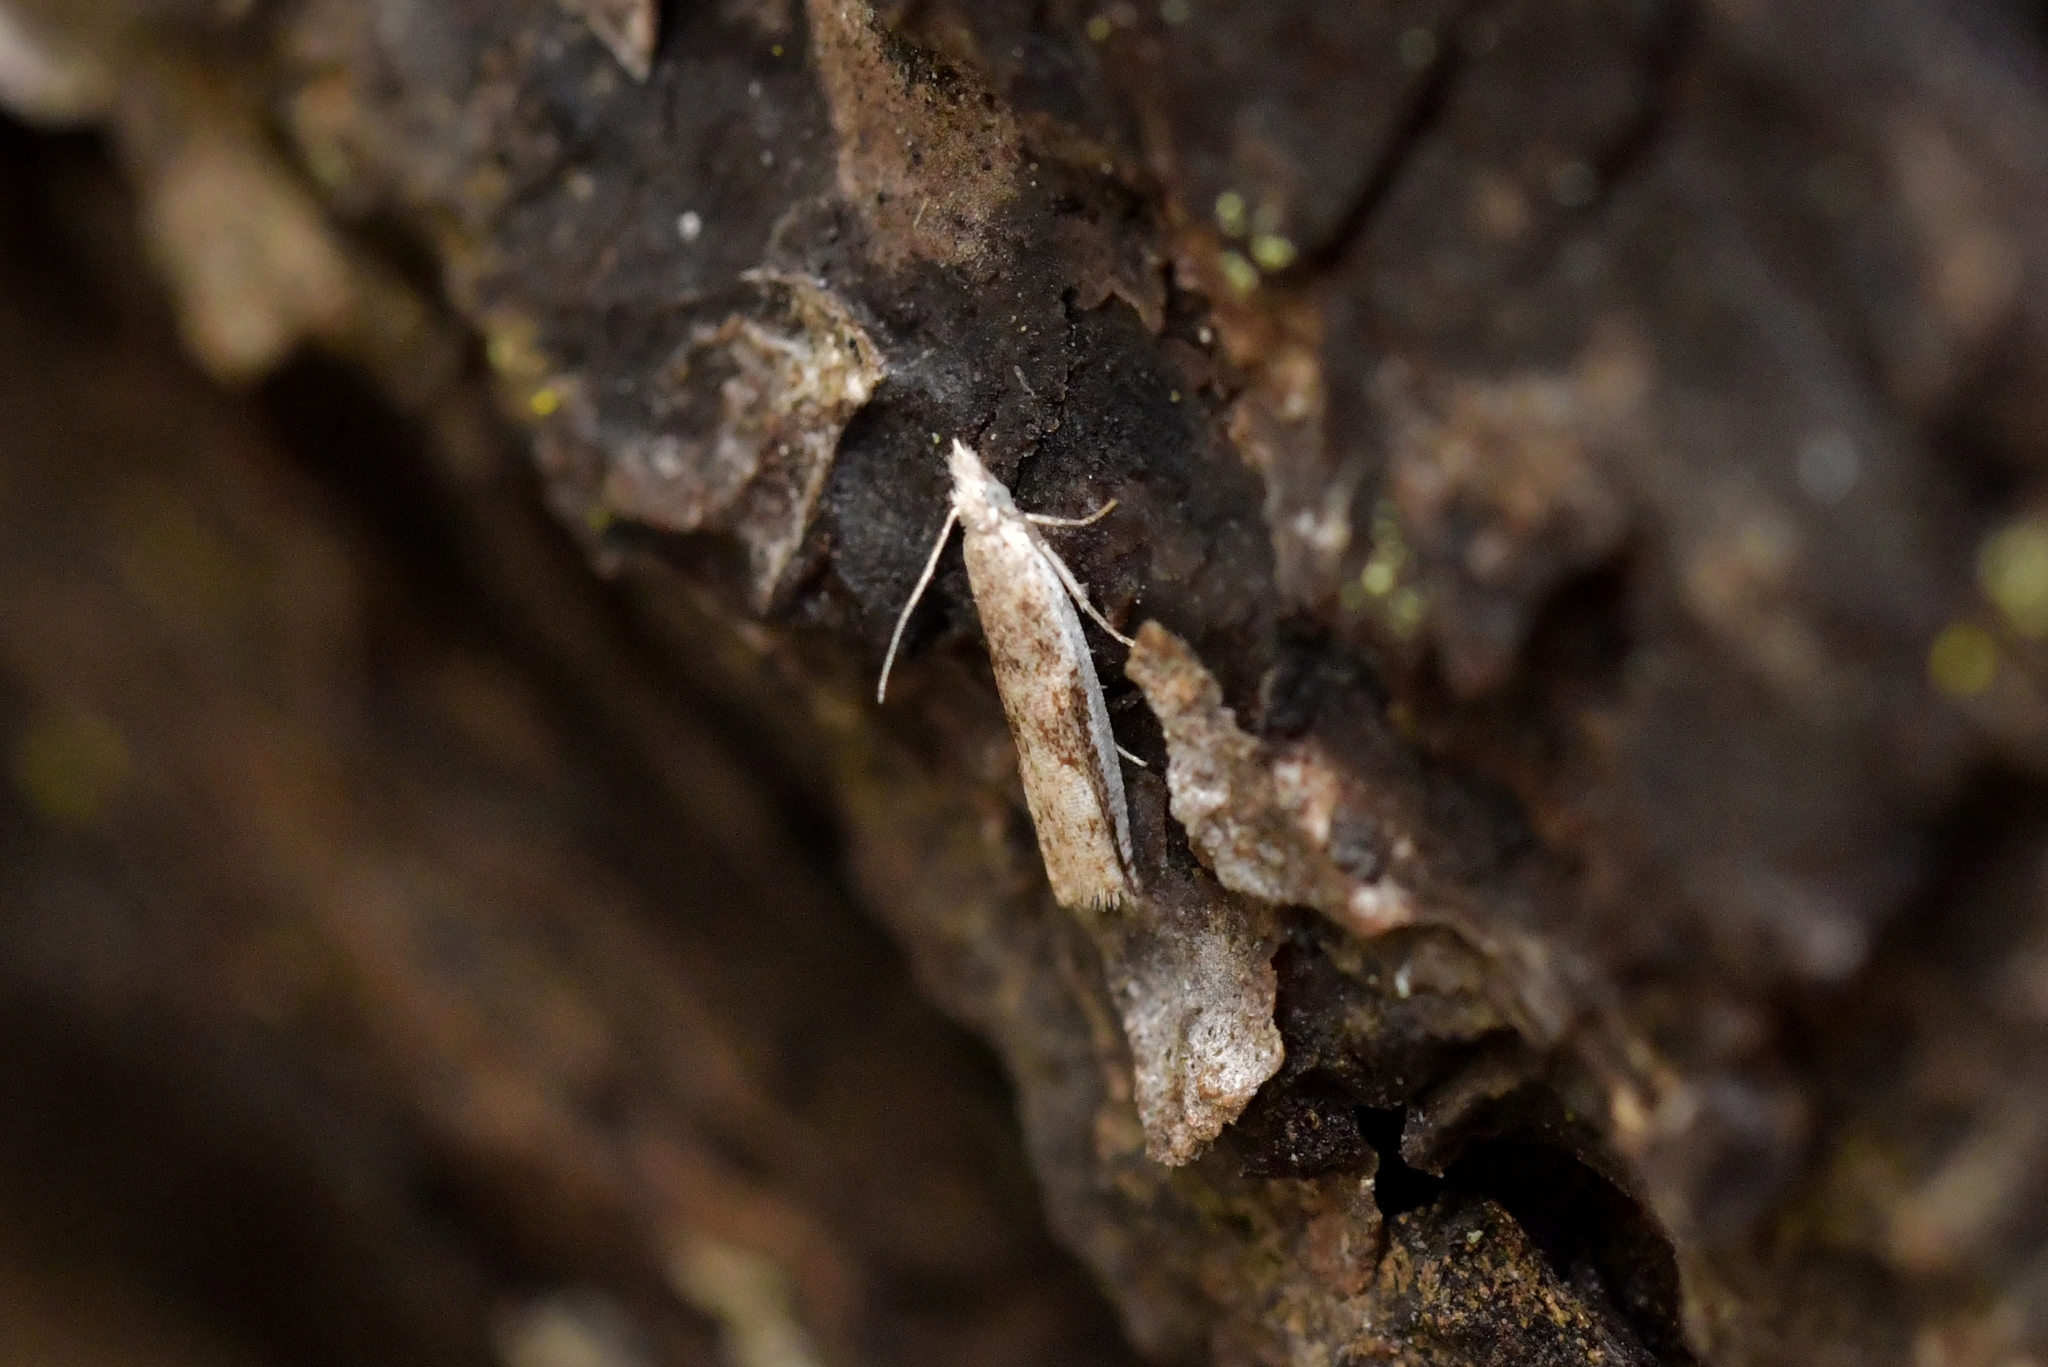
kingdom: Animalia
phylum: Arthropoda
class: Insecta
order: Lepidoptera
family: Tortricidae
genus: Holocola
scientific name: Holocola
